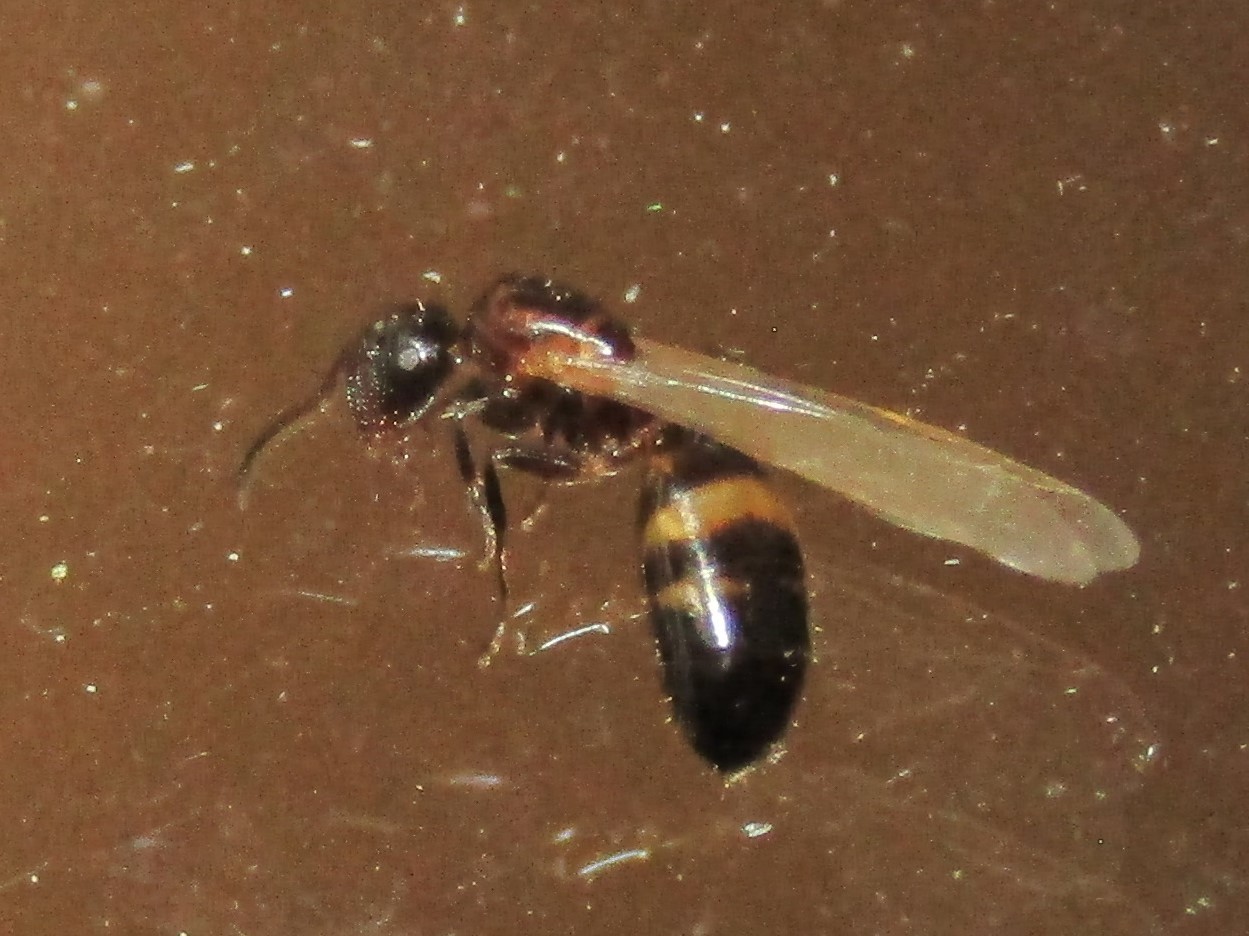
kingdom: Animalia
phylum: Arthropoda
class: Insecta
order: Hymenoptera
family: Formicidae
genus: Colobopsis
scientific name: Colobopsis
